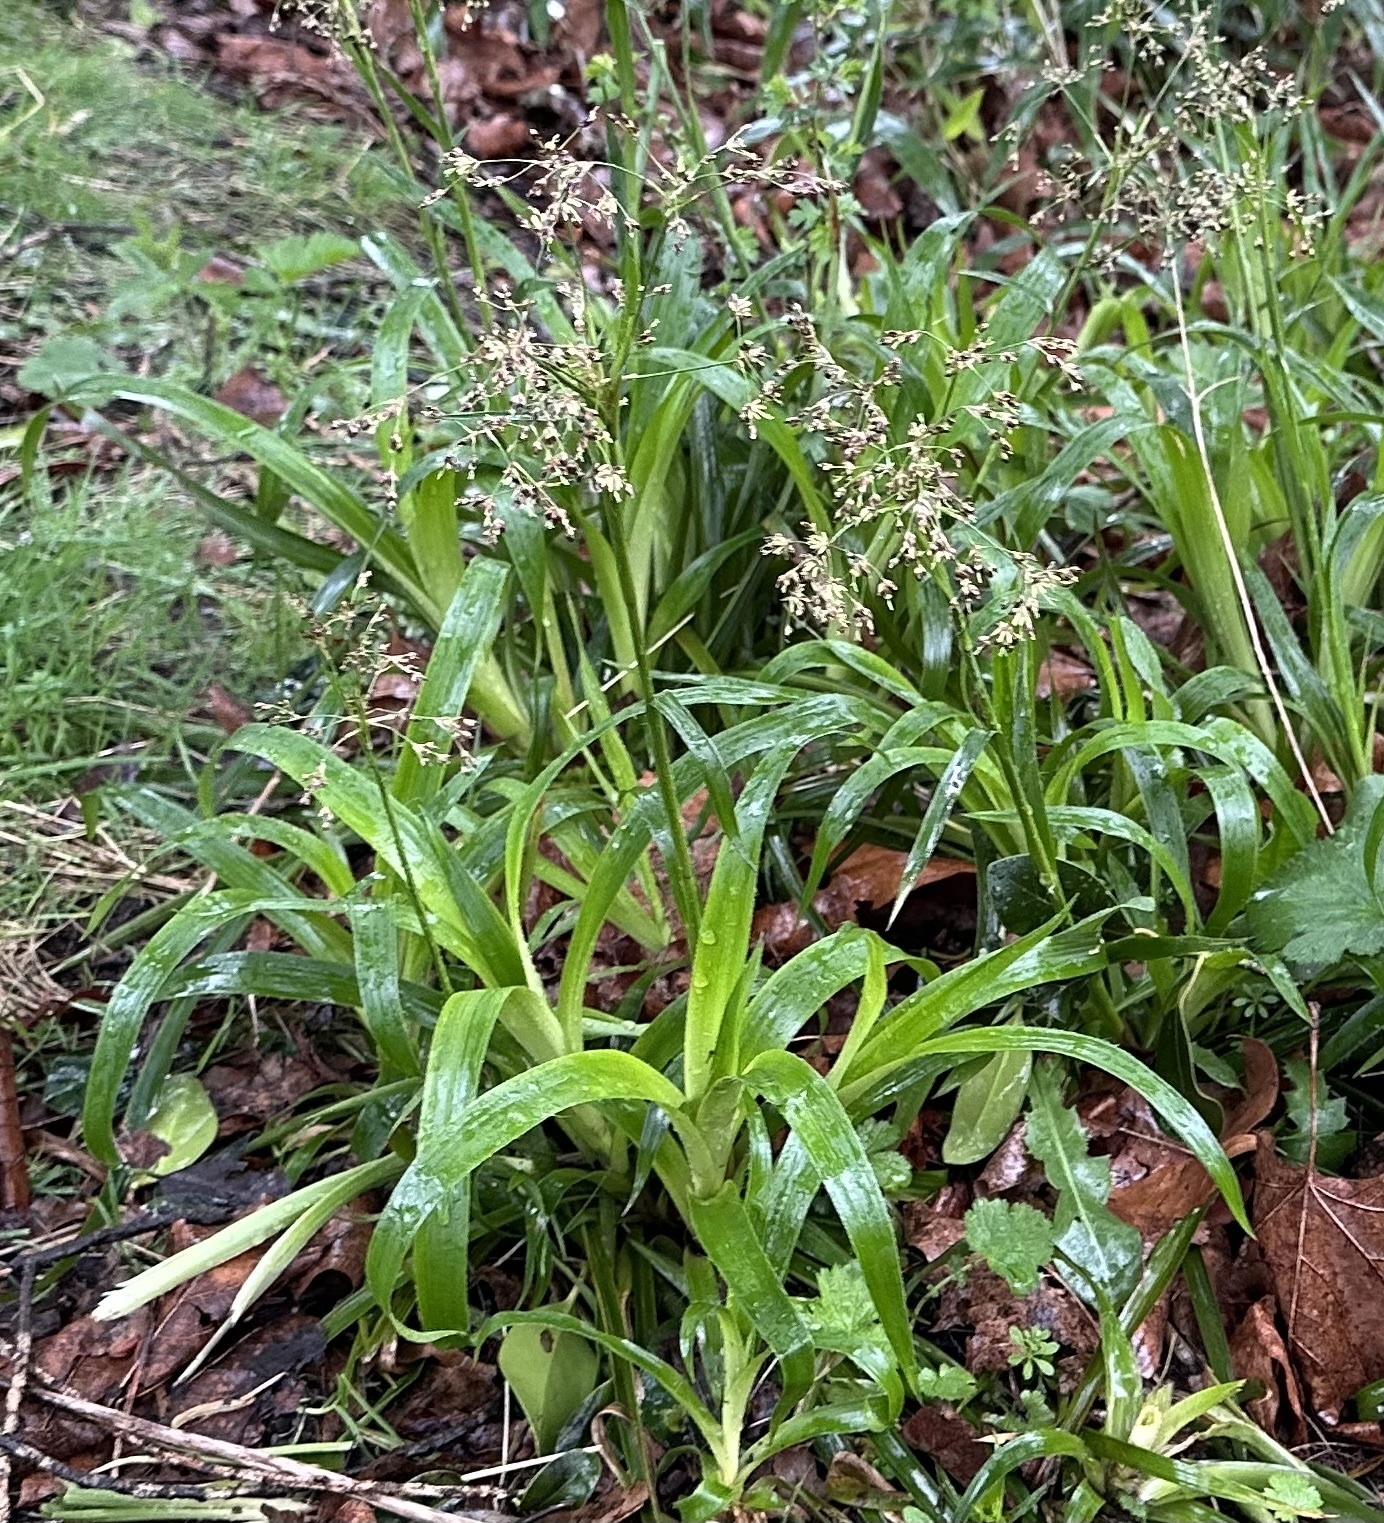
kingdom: Plantae
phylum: Tracheophyta
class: Liliopsida
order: Poales
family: Juncaceae
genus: Luzula
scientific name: Luzula sylvatica
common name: Great wood-rush
